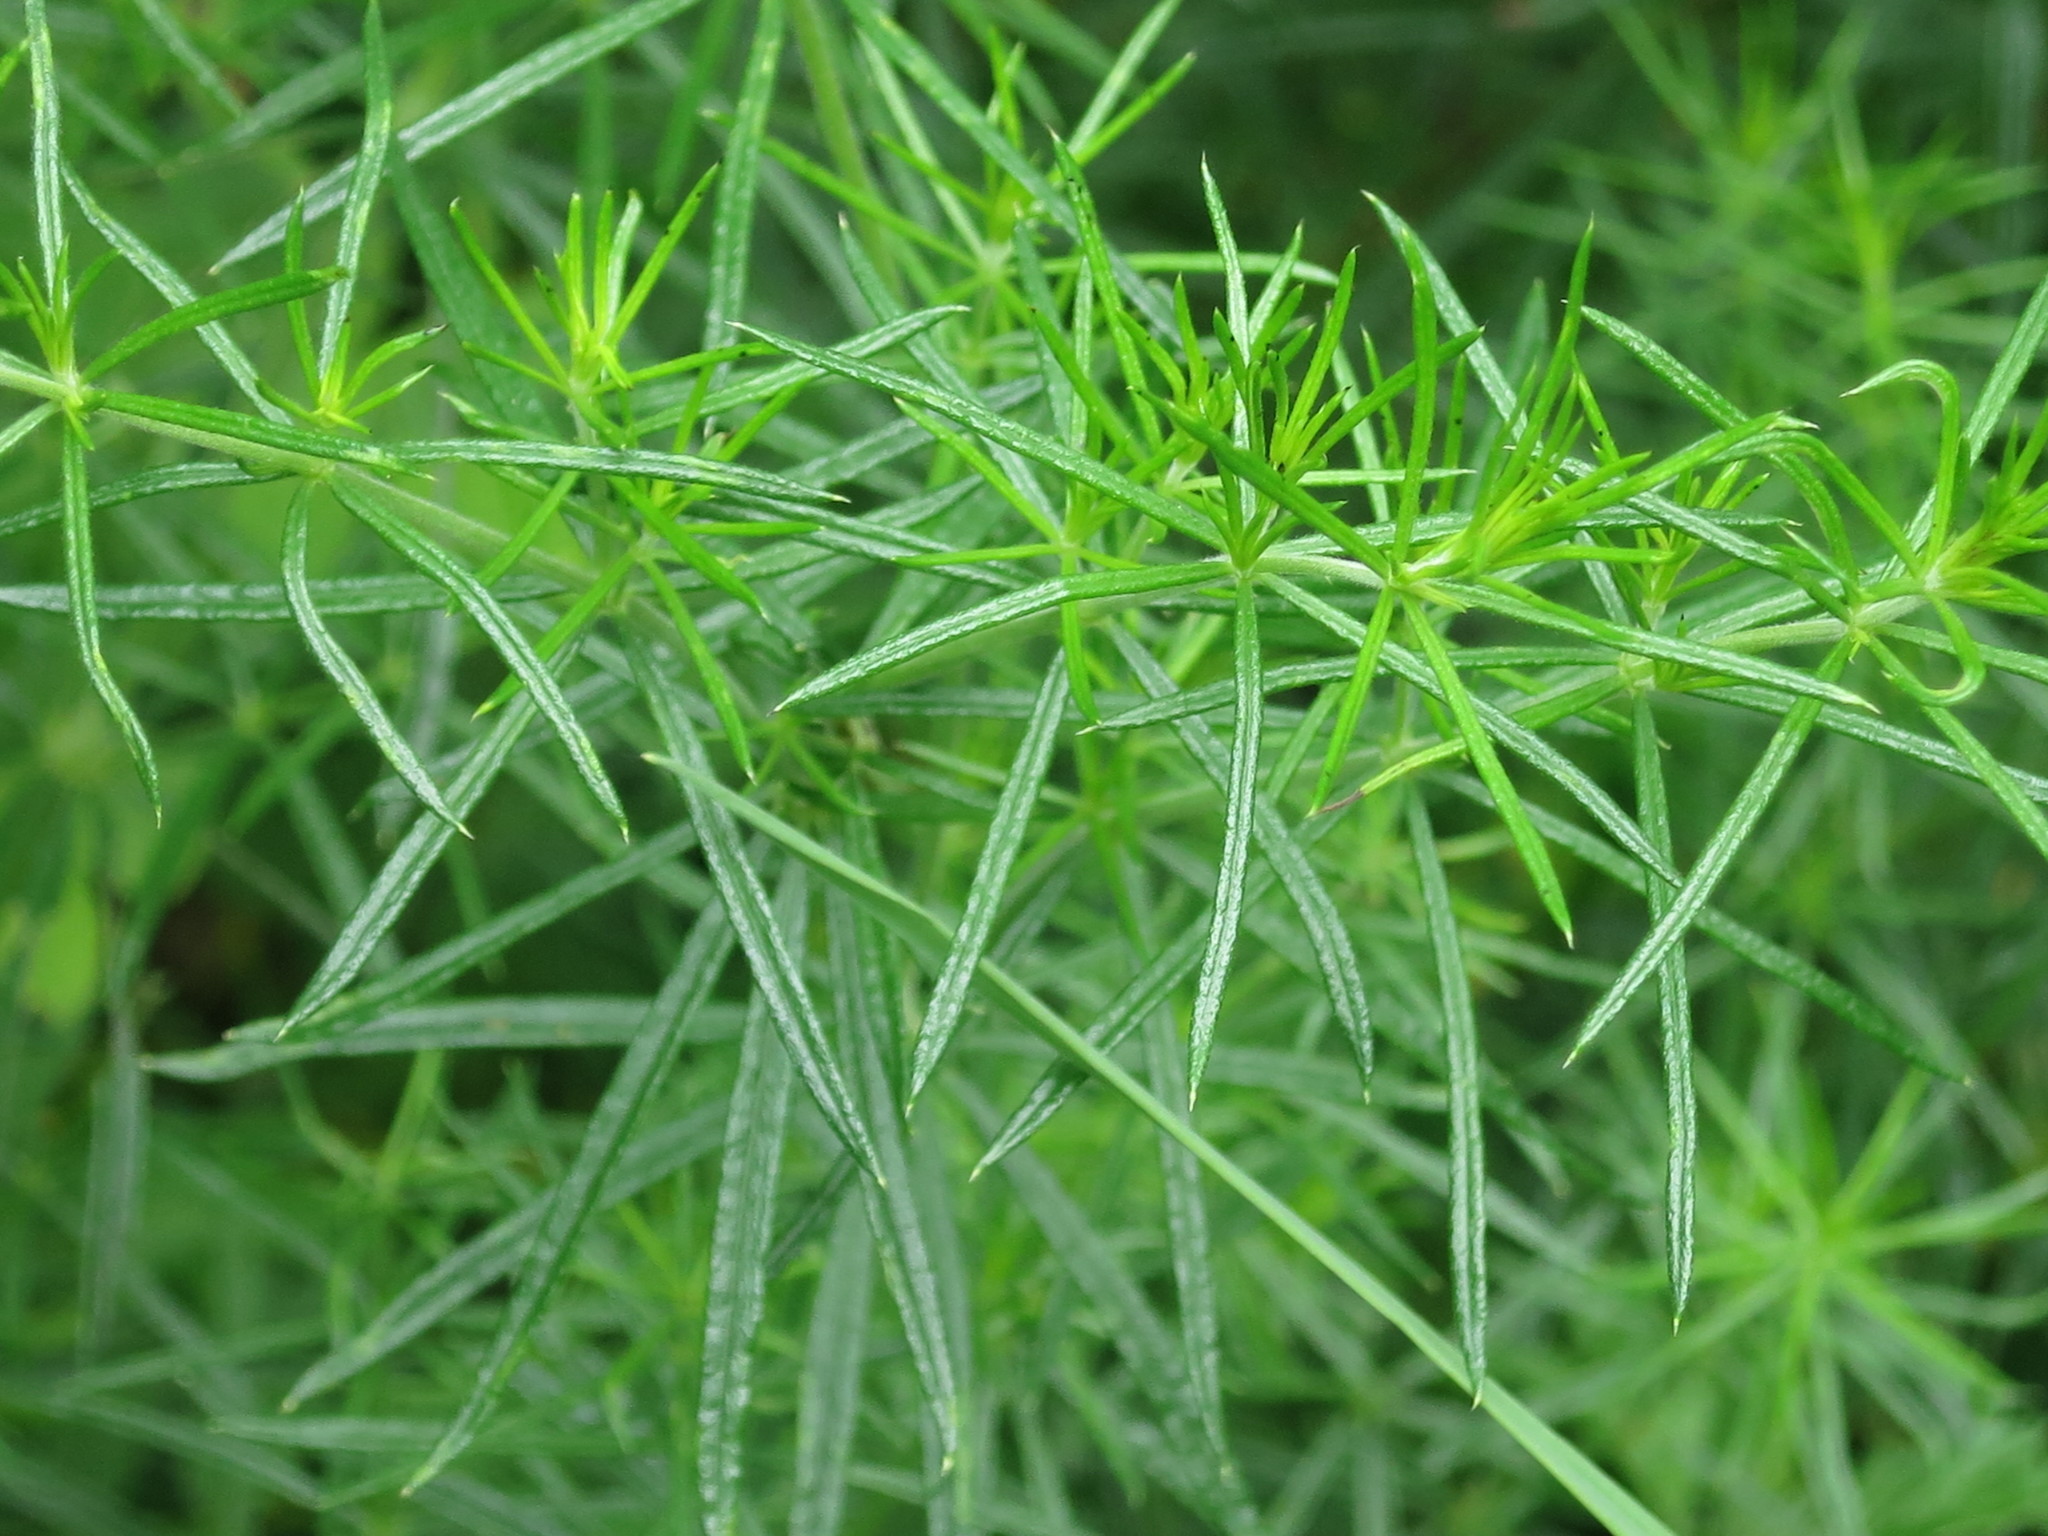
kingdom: Plantae
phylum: Tracheophyta
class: Magnoliopsida
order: Gentianales
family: Rubiaceae
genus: Galium
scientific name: Galium verum
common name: Lady's bedstraw
